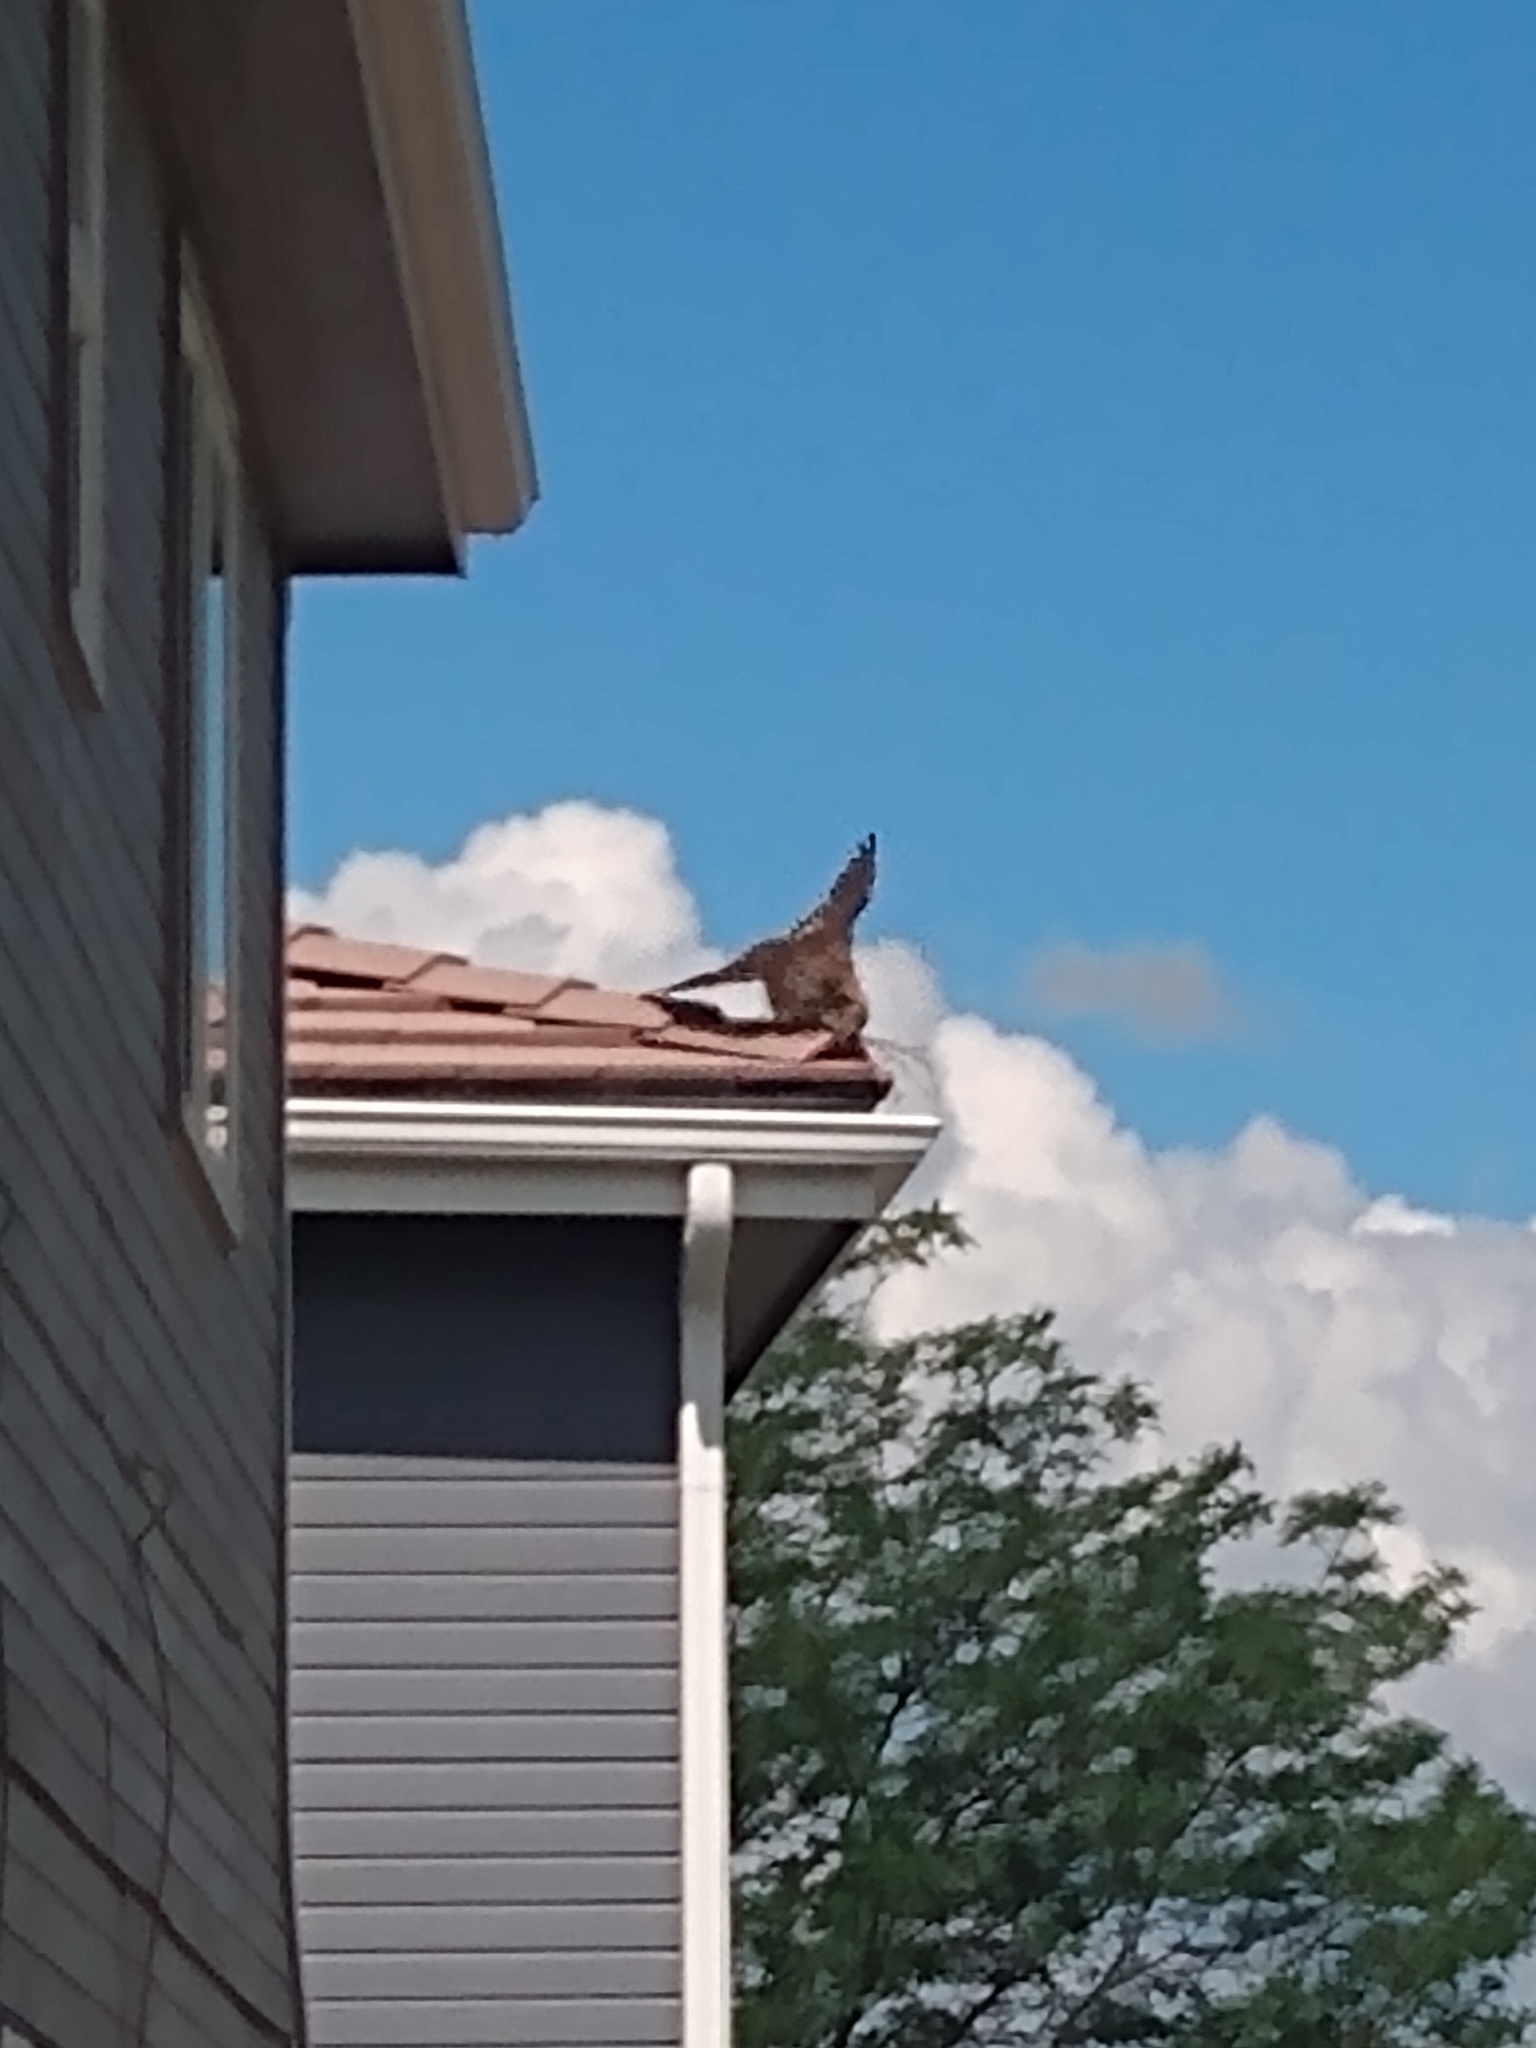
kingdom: Animalia
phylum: Chordata
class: Aves
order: Accipitriformes
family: Accipitridae
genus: Buteo
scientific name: Buteo jamaicensis
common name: Red-tailed hawk
